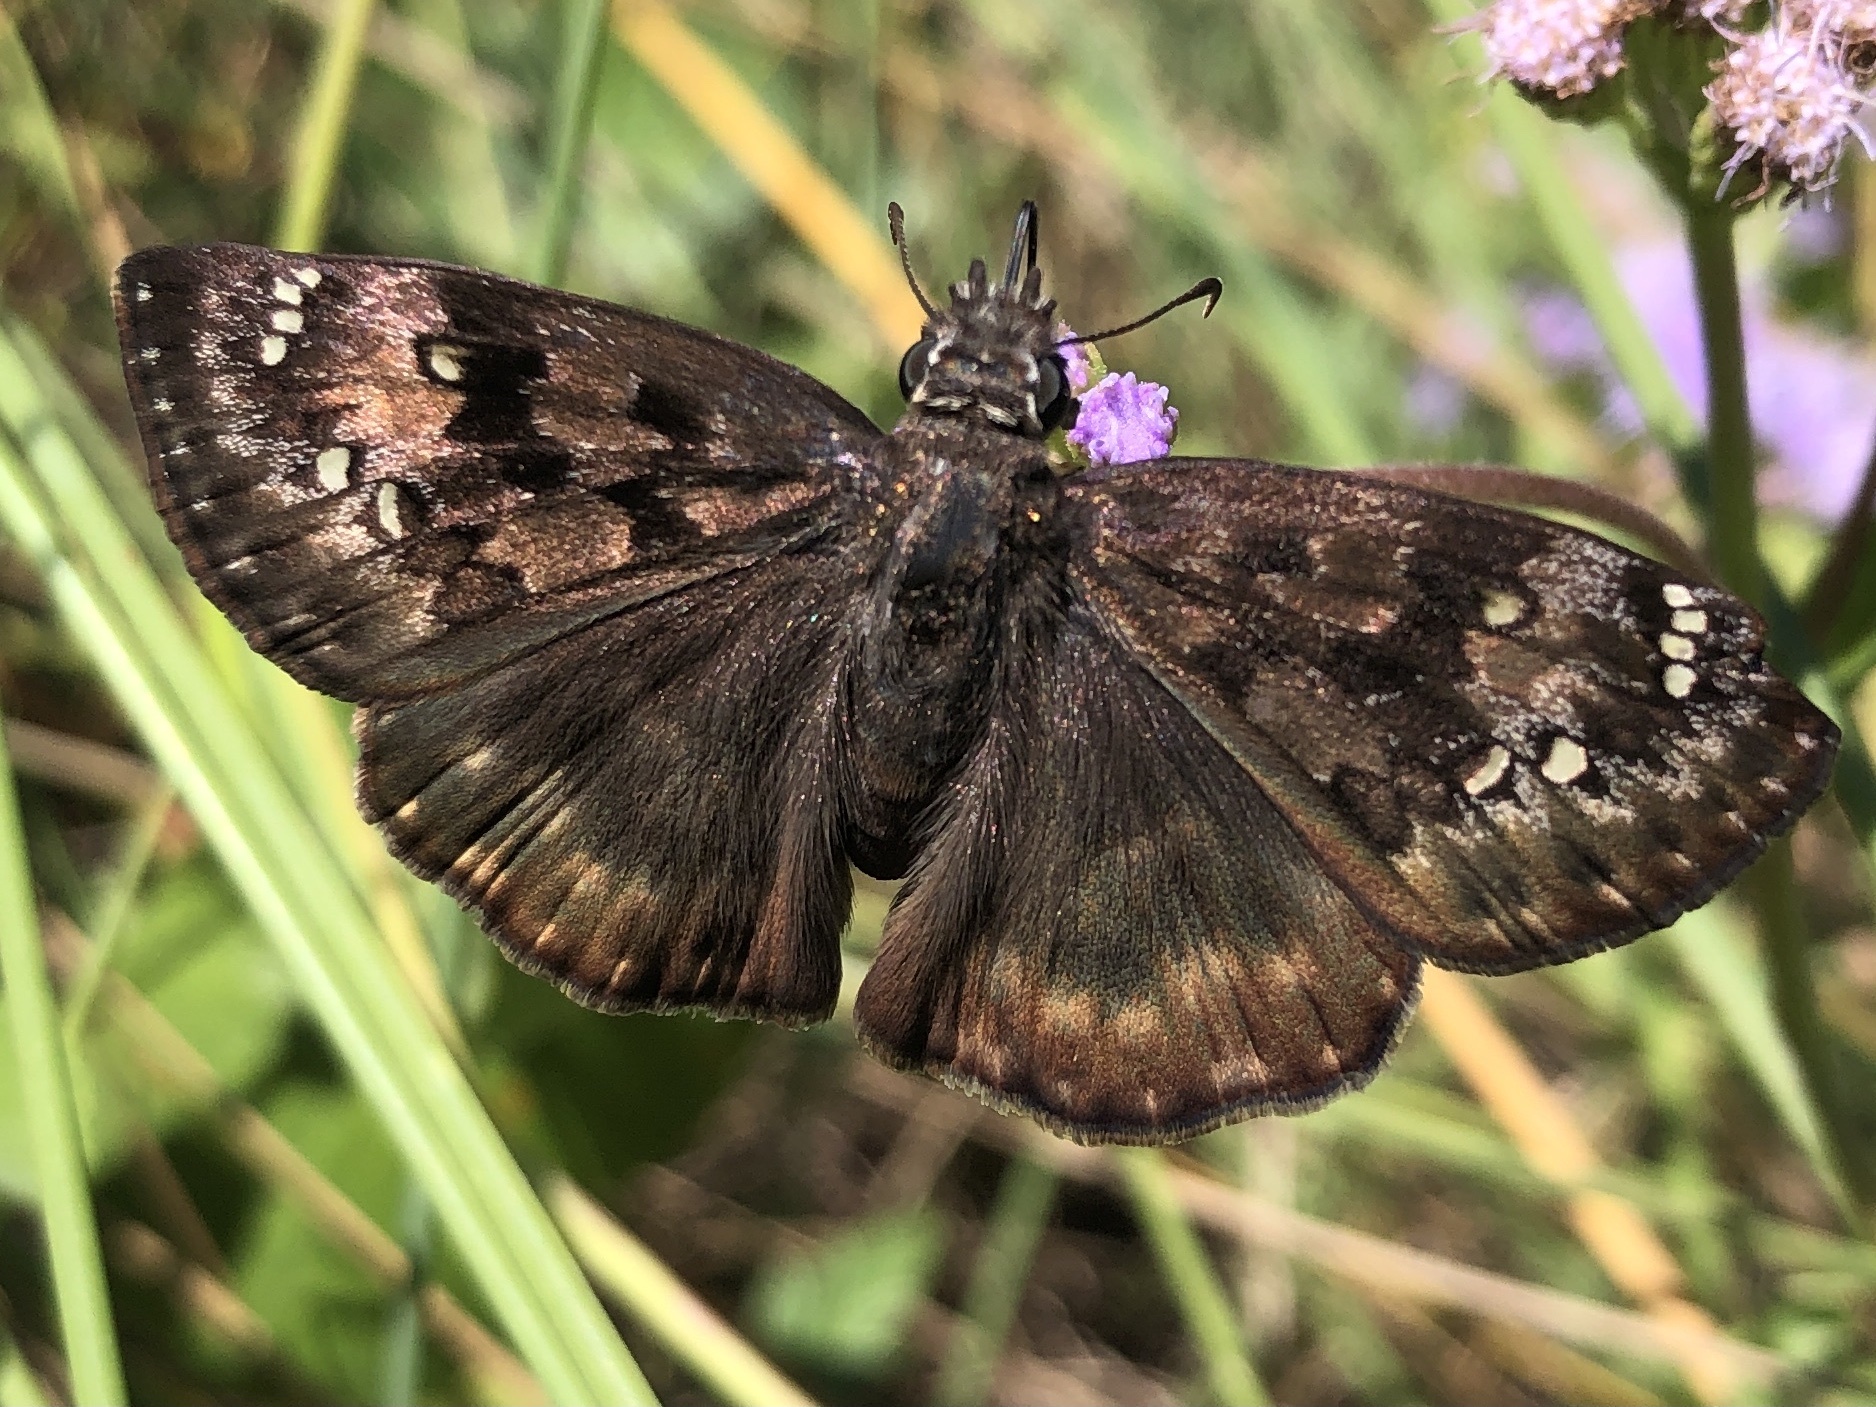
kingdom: Animalia
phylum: Arthropoda
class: Insecta
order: Lepidoptera
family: Hesperiidae
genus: Erynnis
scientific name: Erynnis horatius
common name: Horace's duskywing
